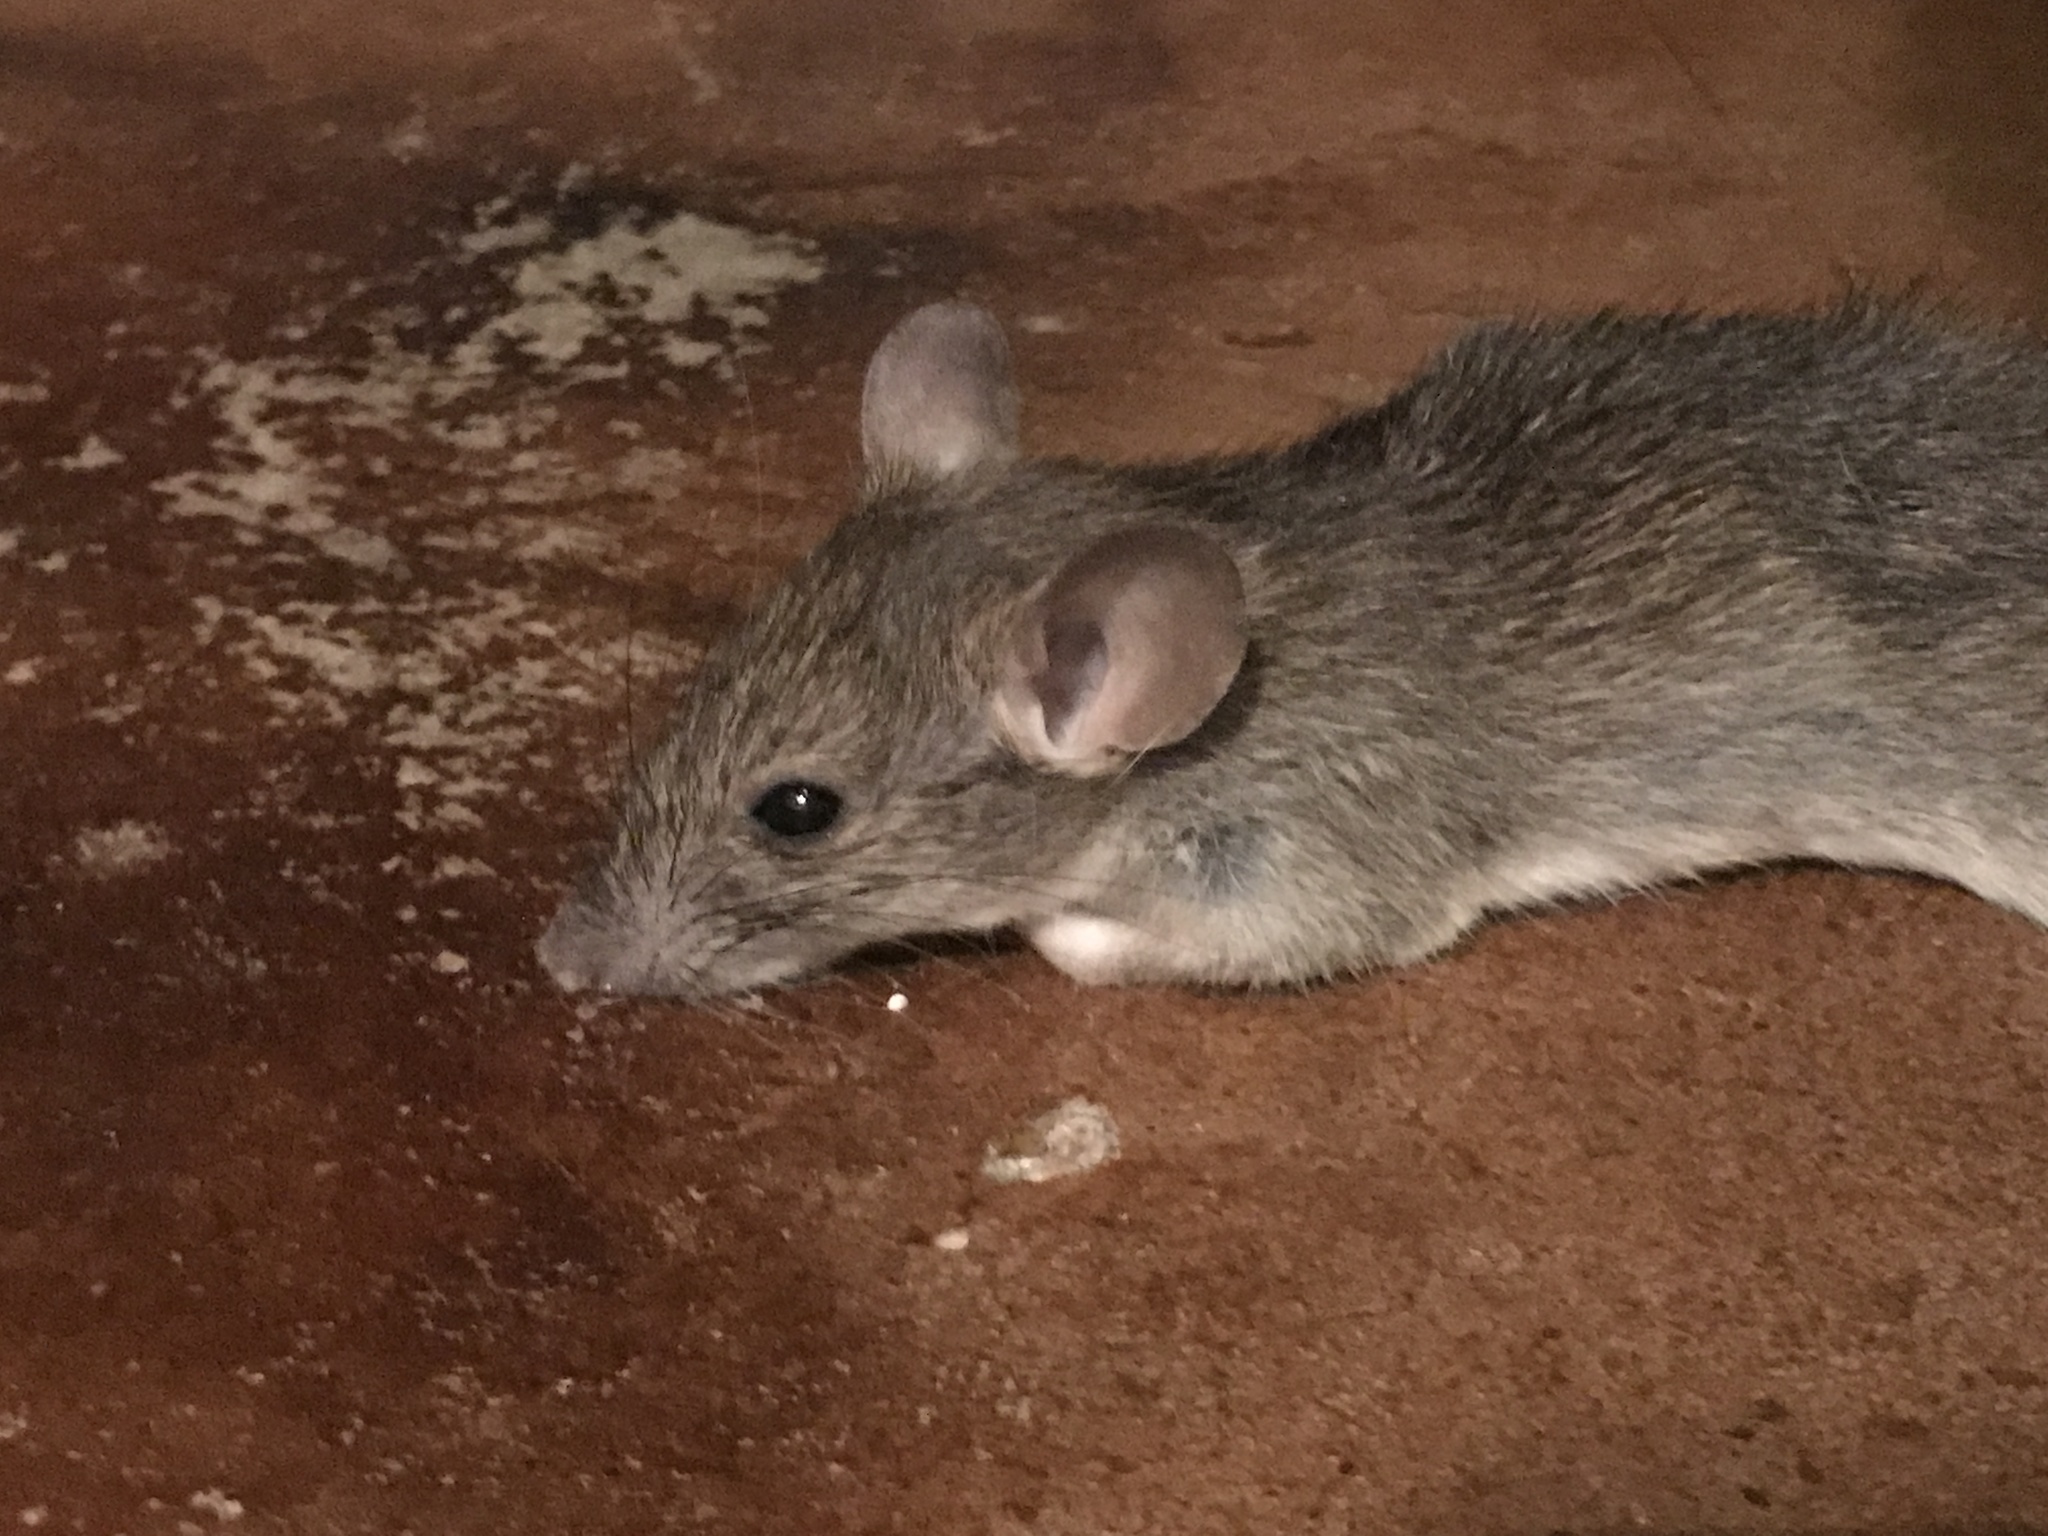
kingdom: Animalia
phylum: Chordata
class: Mammalia
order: Rodentia
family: Muridae
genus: Rattus
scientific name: Rattus rattus
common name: Black rat
